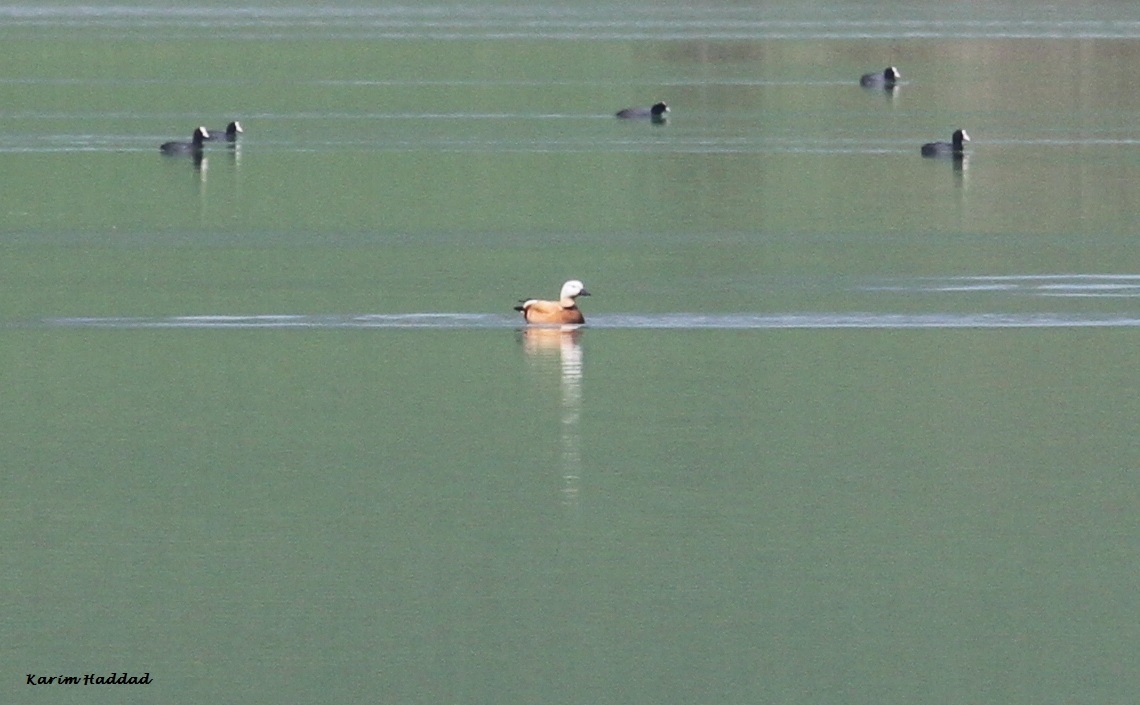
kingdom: Animalia
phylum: Chordata
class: Aves
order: Anseriformes
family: Anatidae
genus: Tadorna
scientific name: Tadorna ferruginea
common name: Ruddy shelduck
